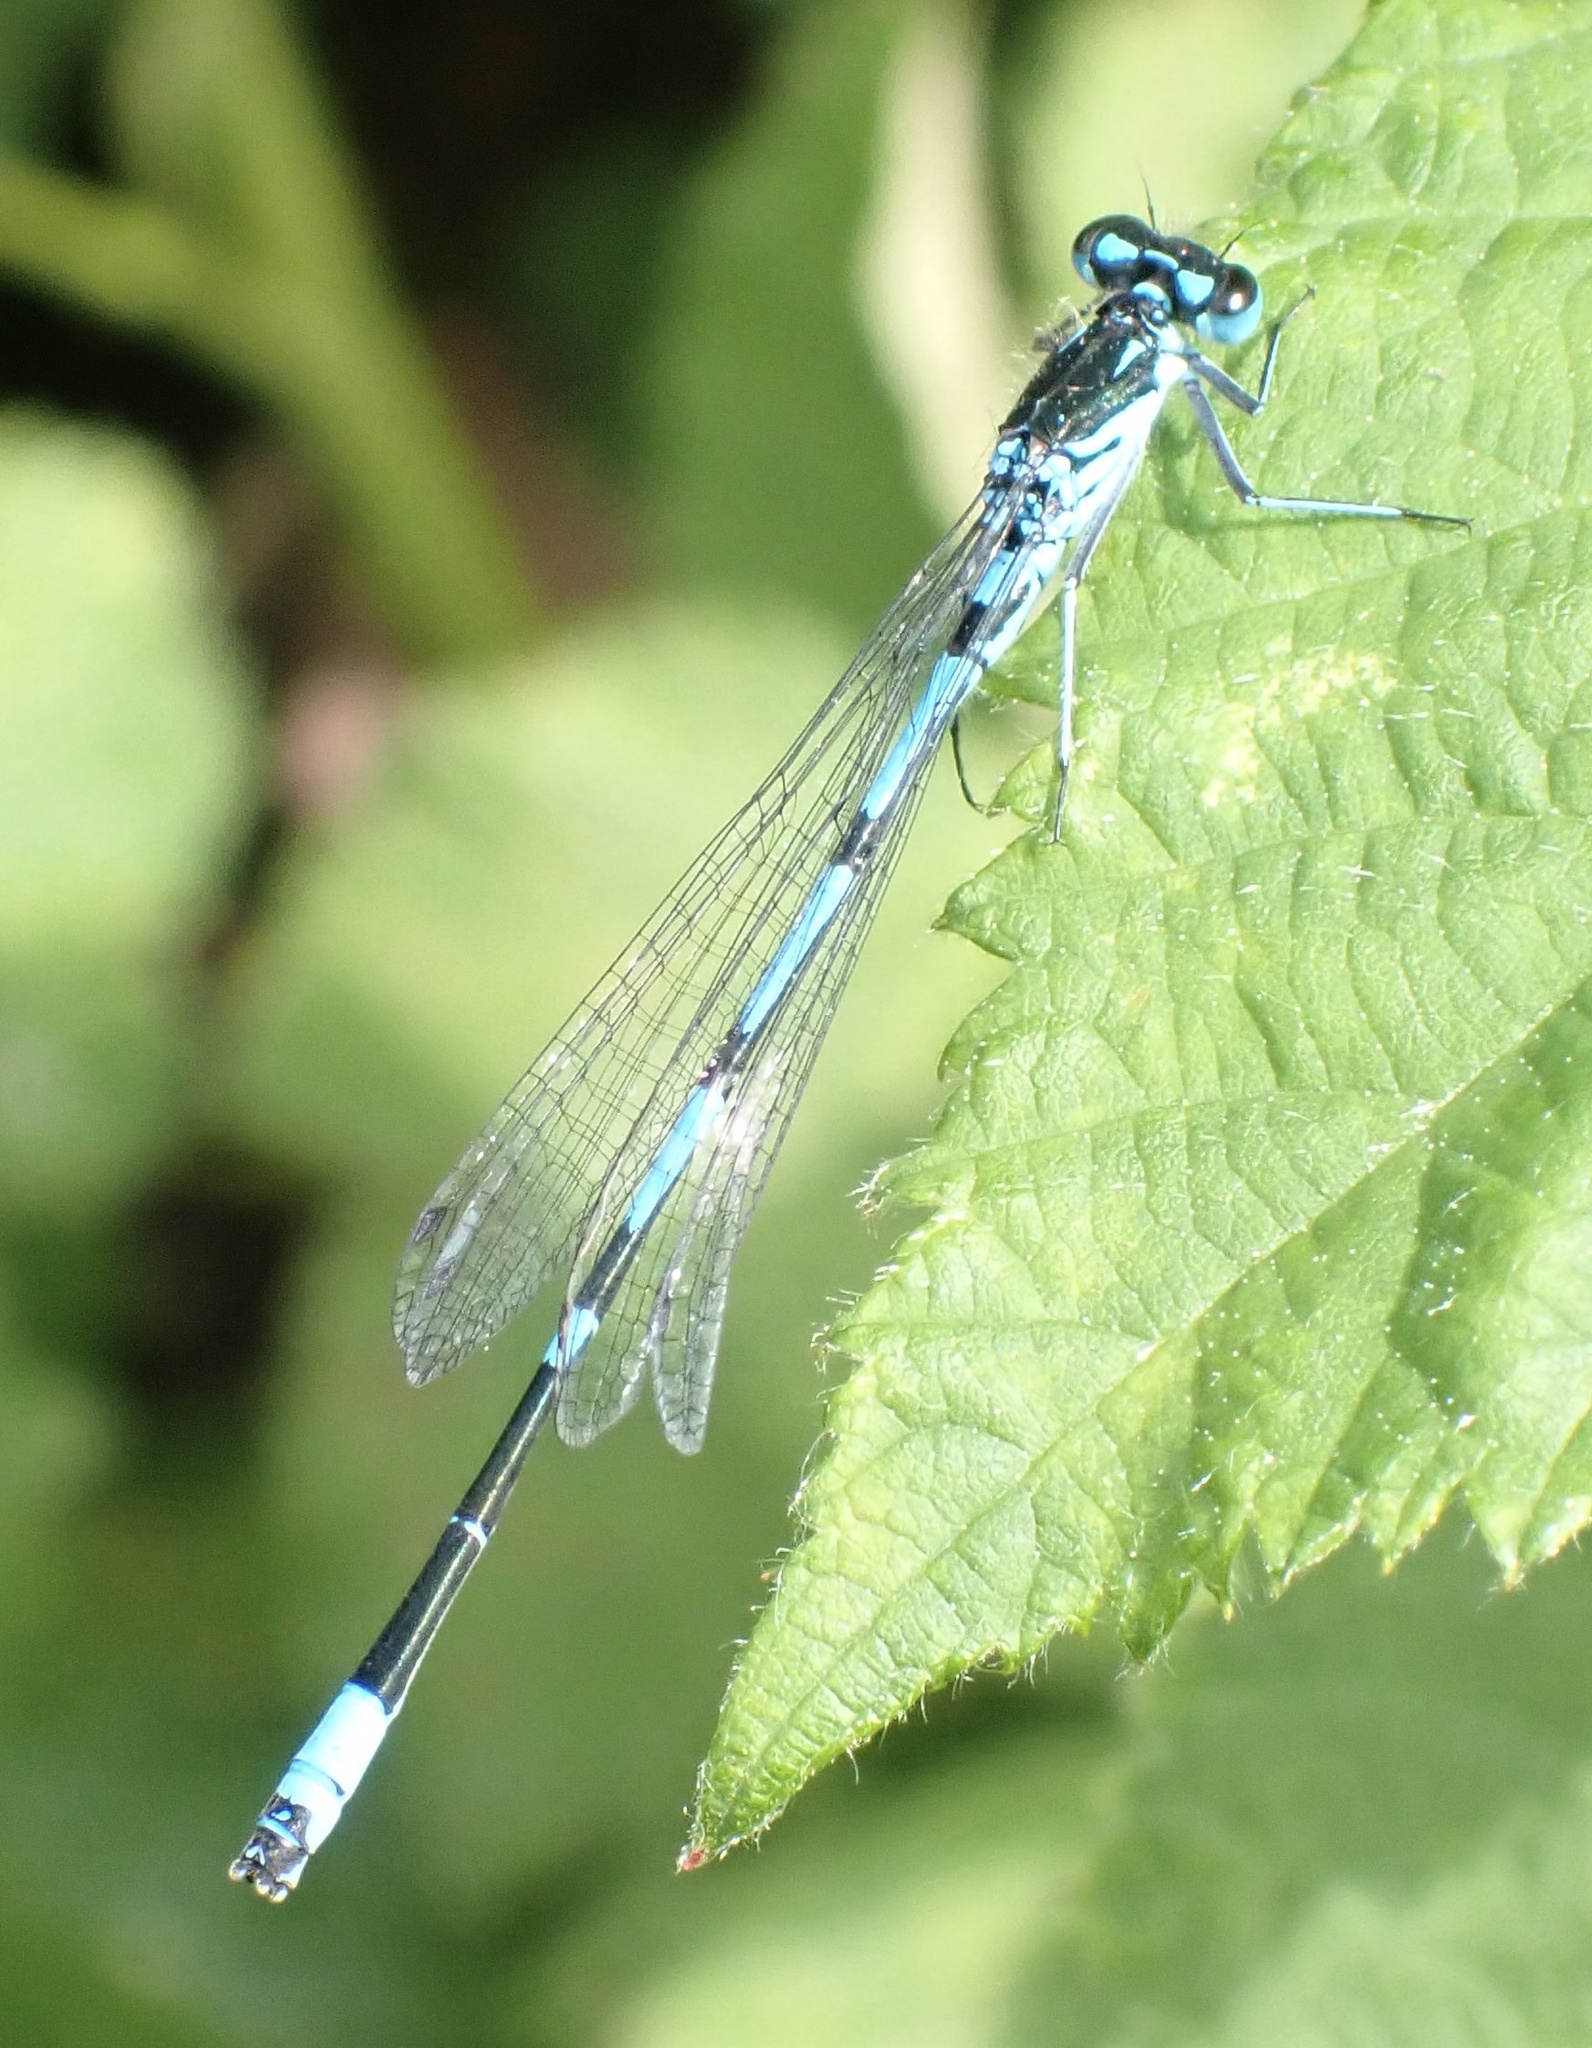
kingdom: Animalia
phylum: Arthropoda
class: Insecta
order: Odonata
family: Coenagrionidae
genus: Coenagrion
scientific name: Coenagrion pulchellum
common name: Variable bluet
